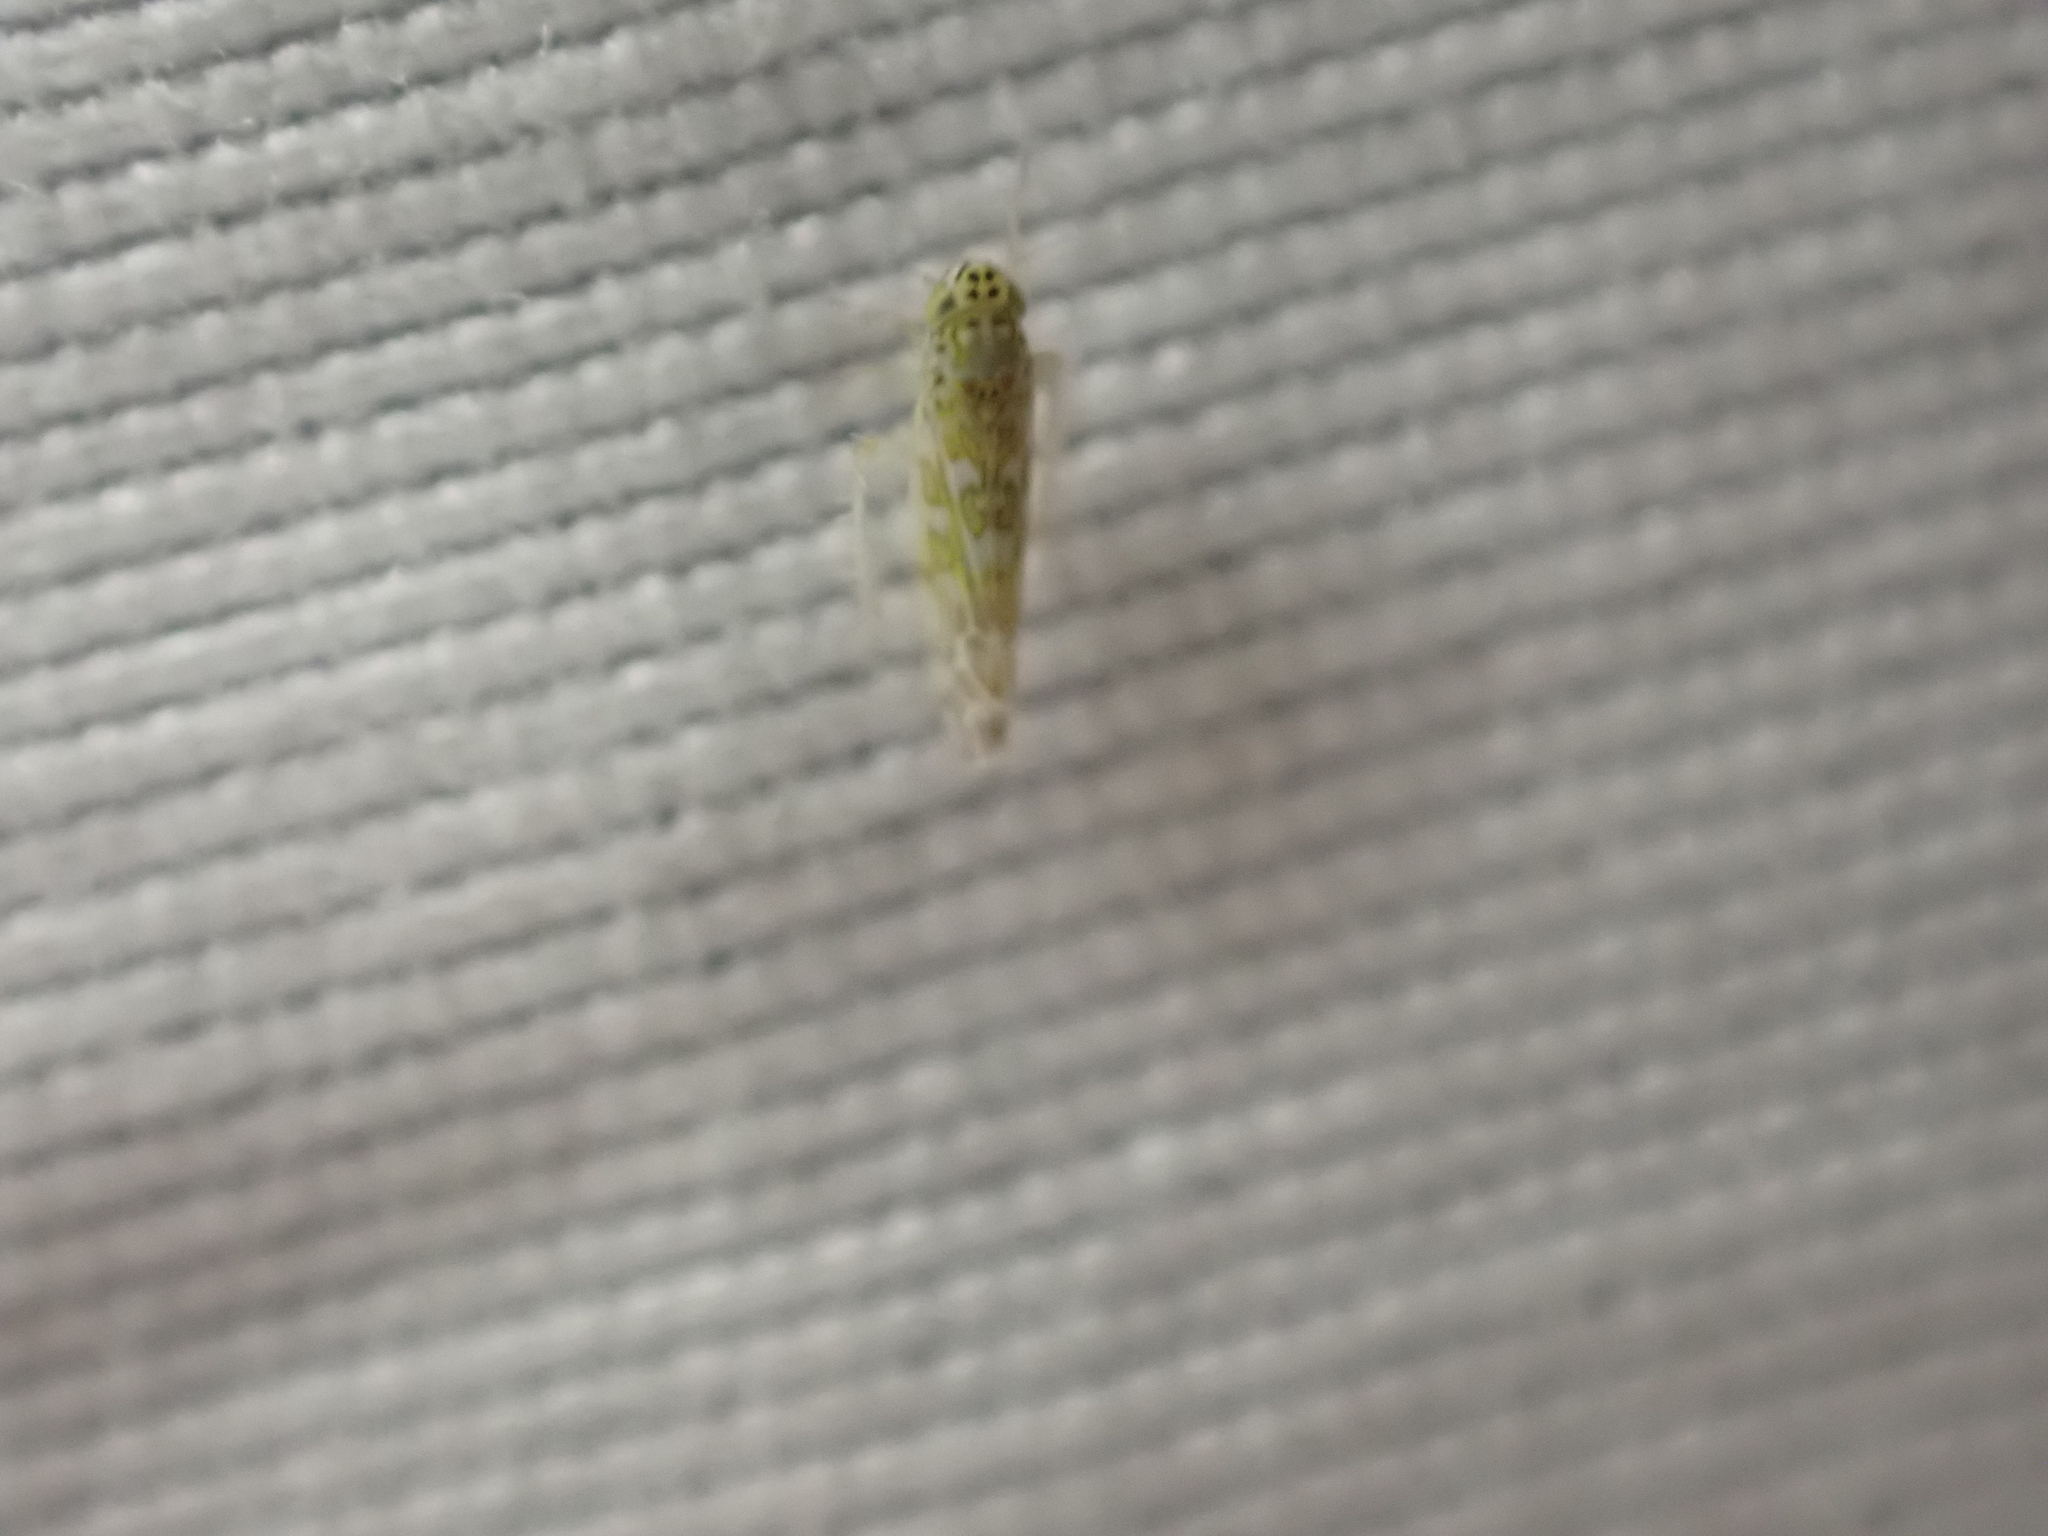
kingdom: Animalia
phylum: Arthropoda
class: Insecta
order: Hemiptera
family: Cicadellidae
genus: Eupteryx
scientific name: Eupteryx decemnotata
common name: Ligurian leafhopper
